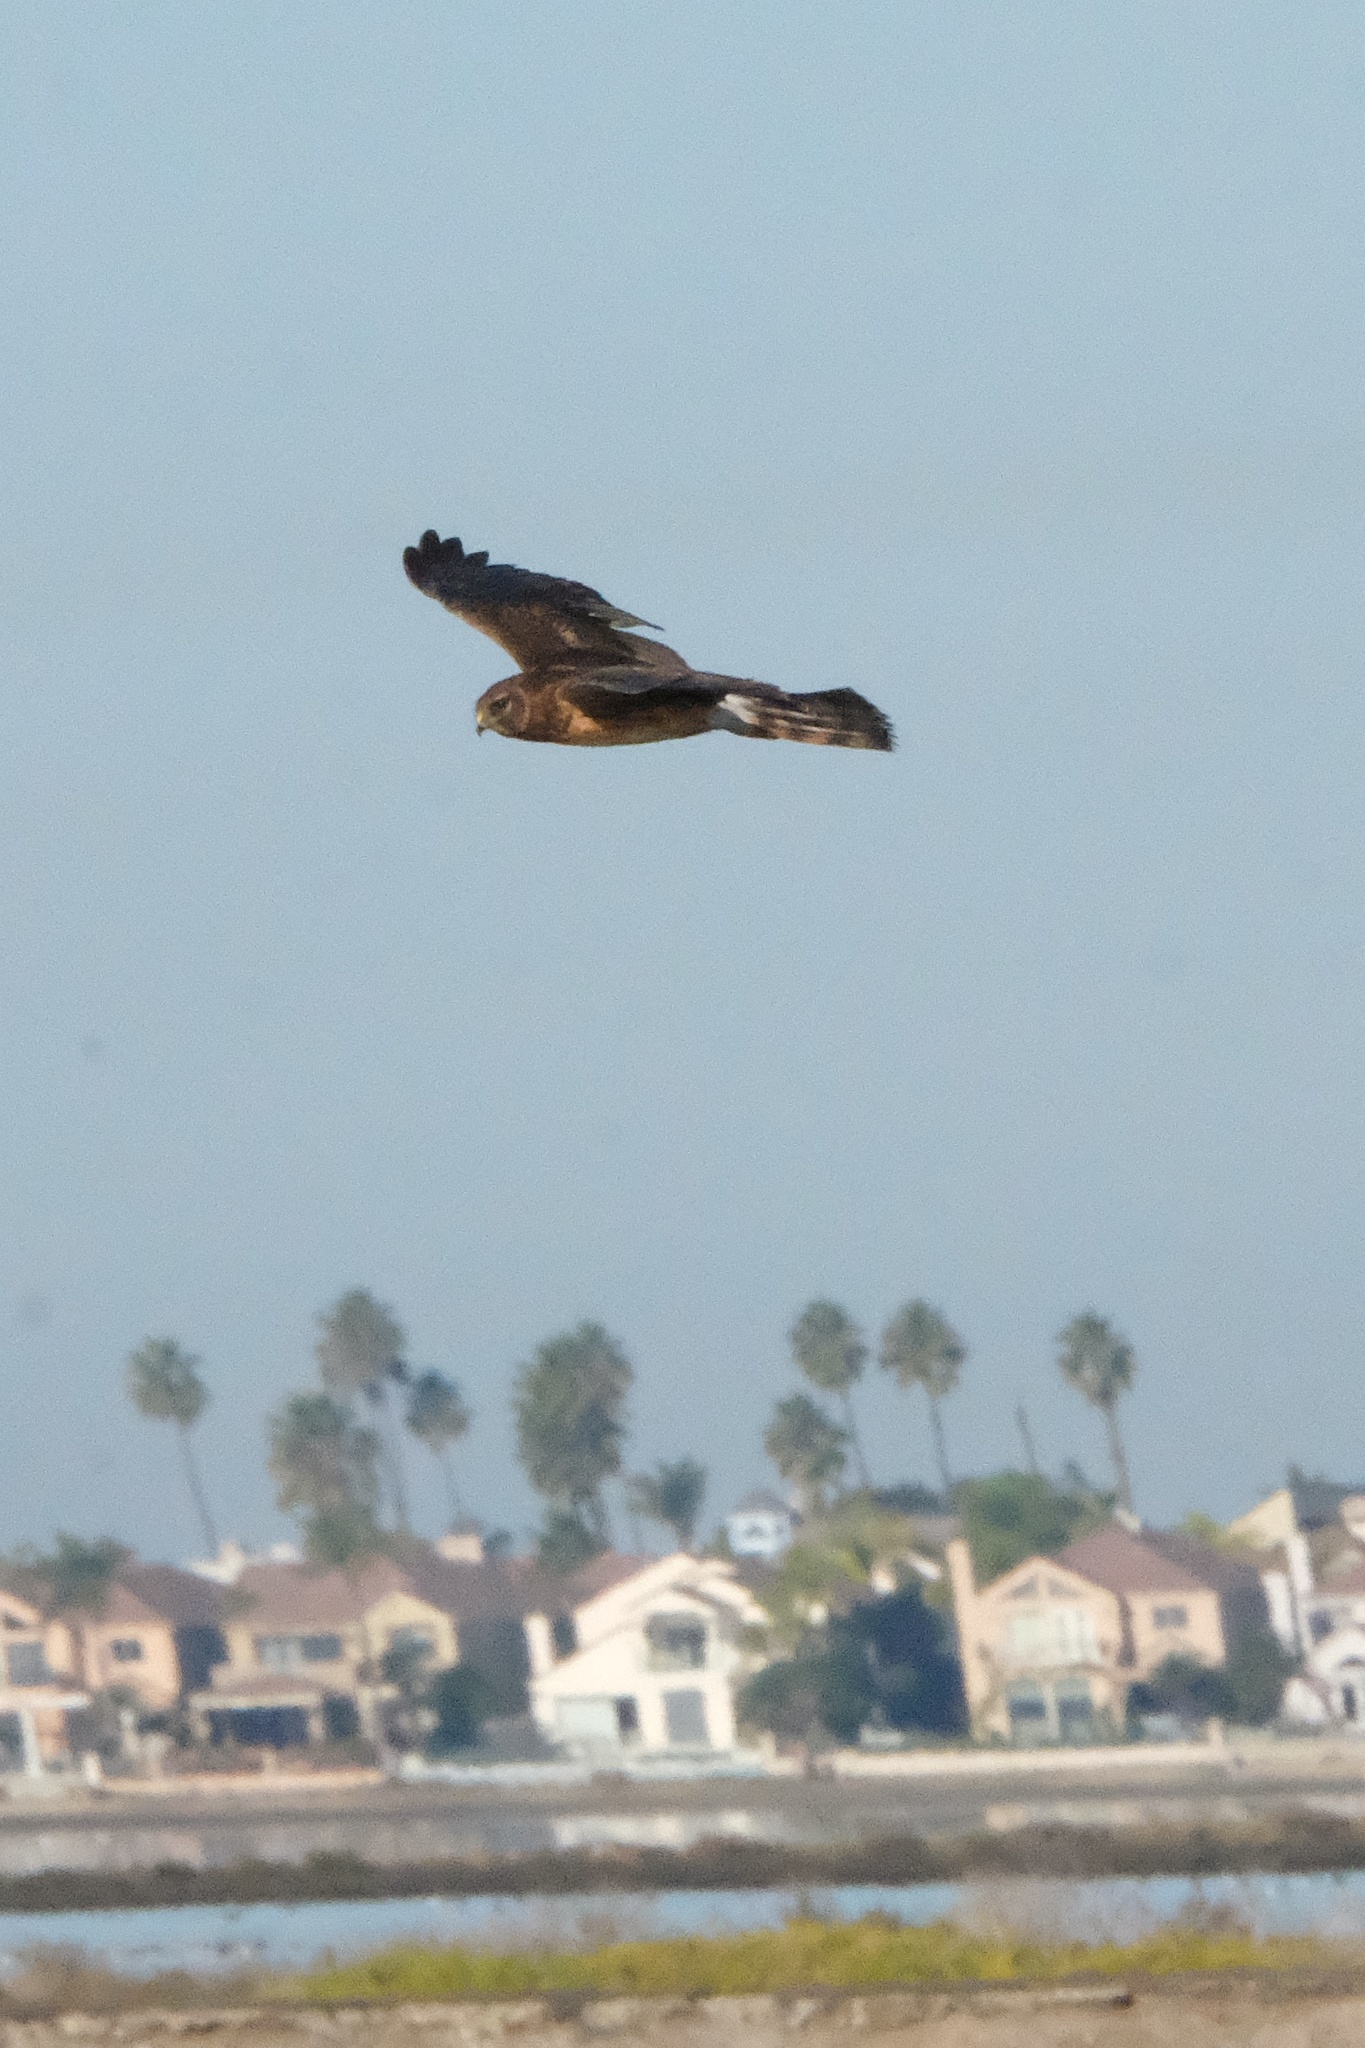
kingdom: Animalia
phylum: Chordata
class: Aves
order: Accipitriformes
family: Accipitridae
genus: Circus
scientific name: Circus cyaneus
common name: Hen harrier
